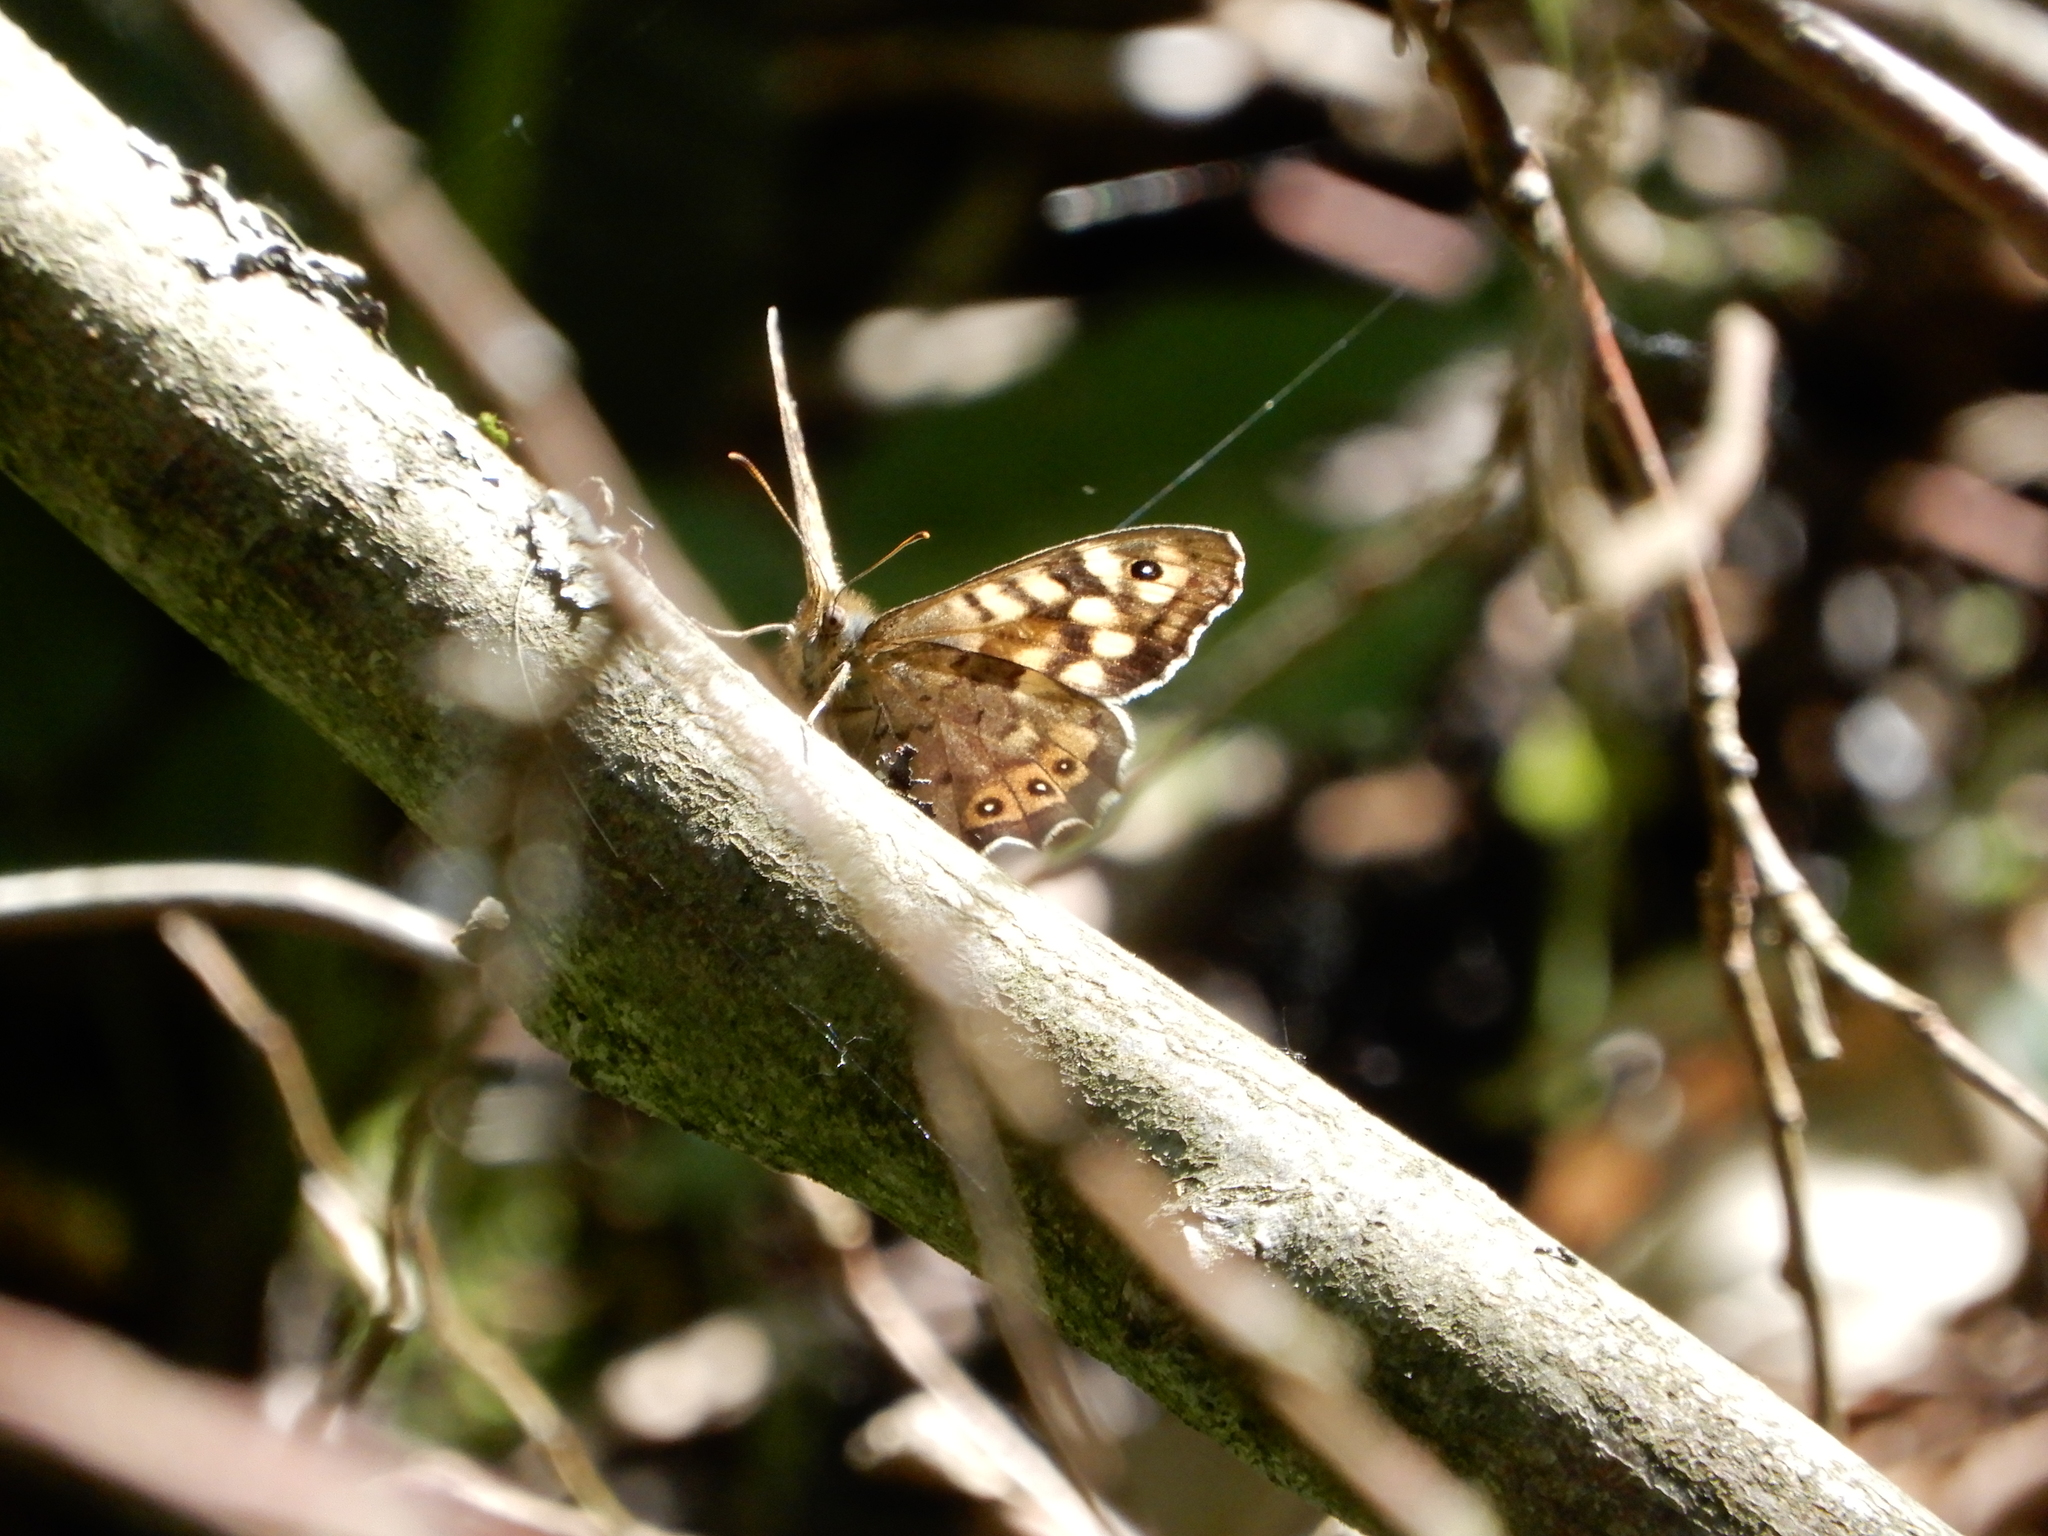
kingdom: Animalia
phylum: Arthropoda
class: Insecta
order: Lepidoptera
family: Nymphalidae
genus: Pararge
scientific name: Pararge aegeria
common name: Speckled wood
